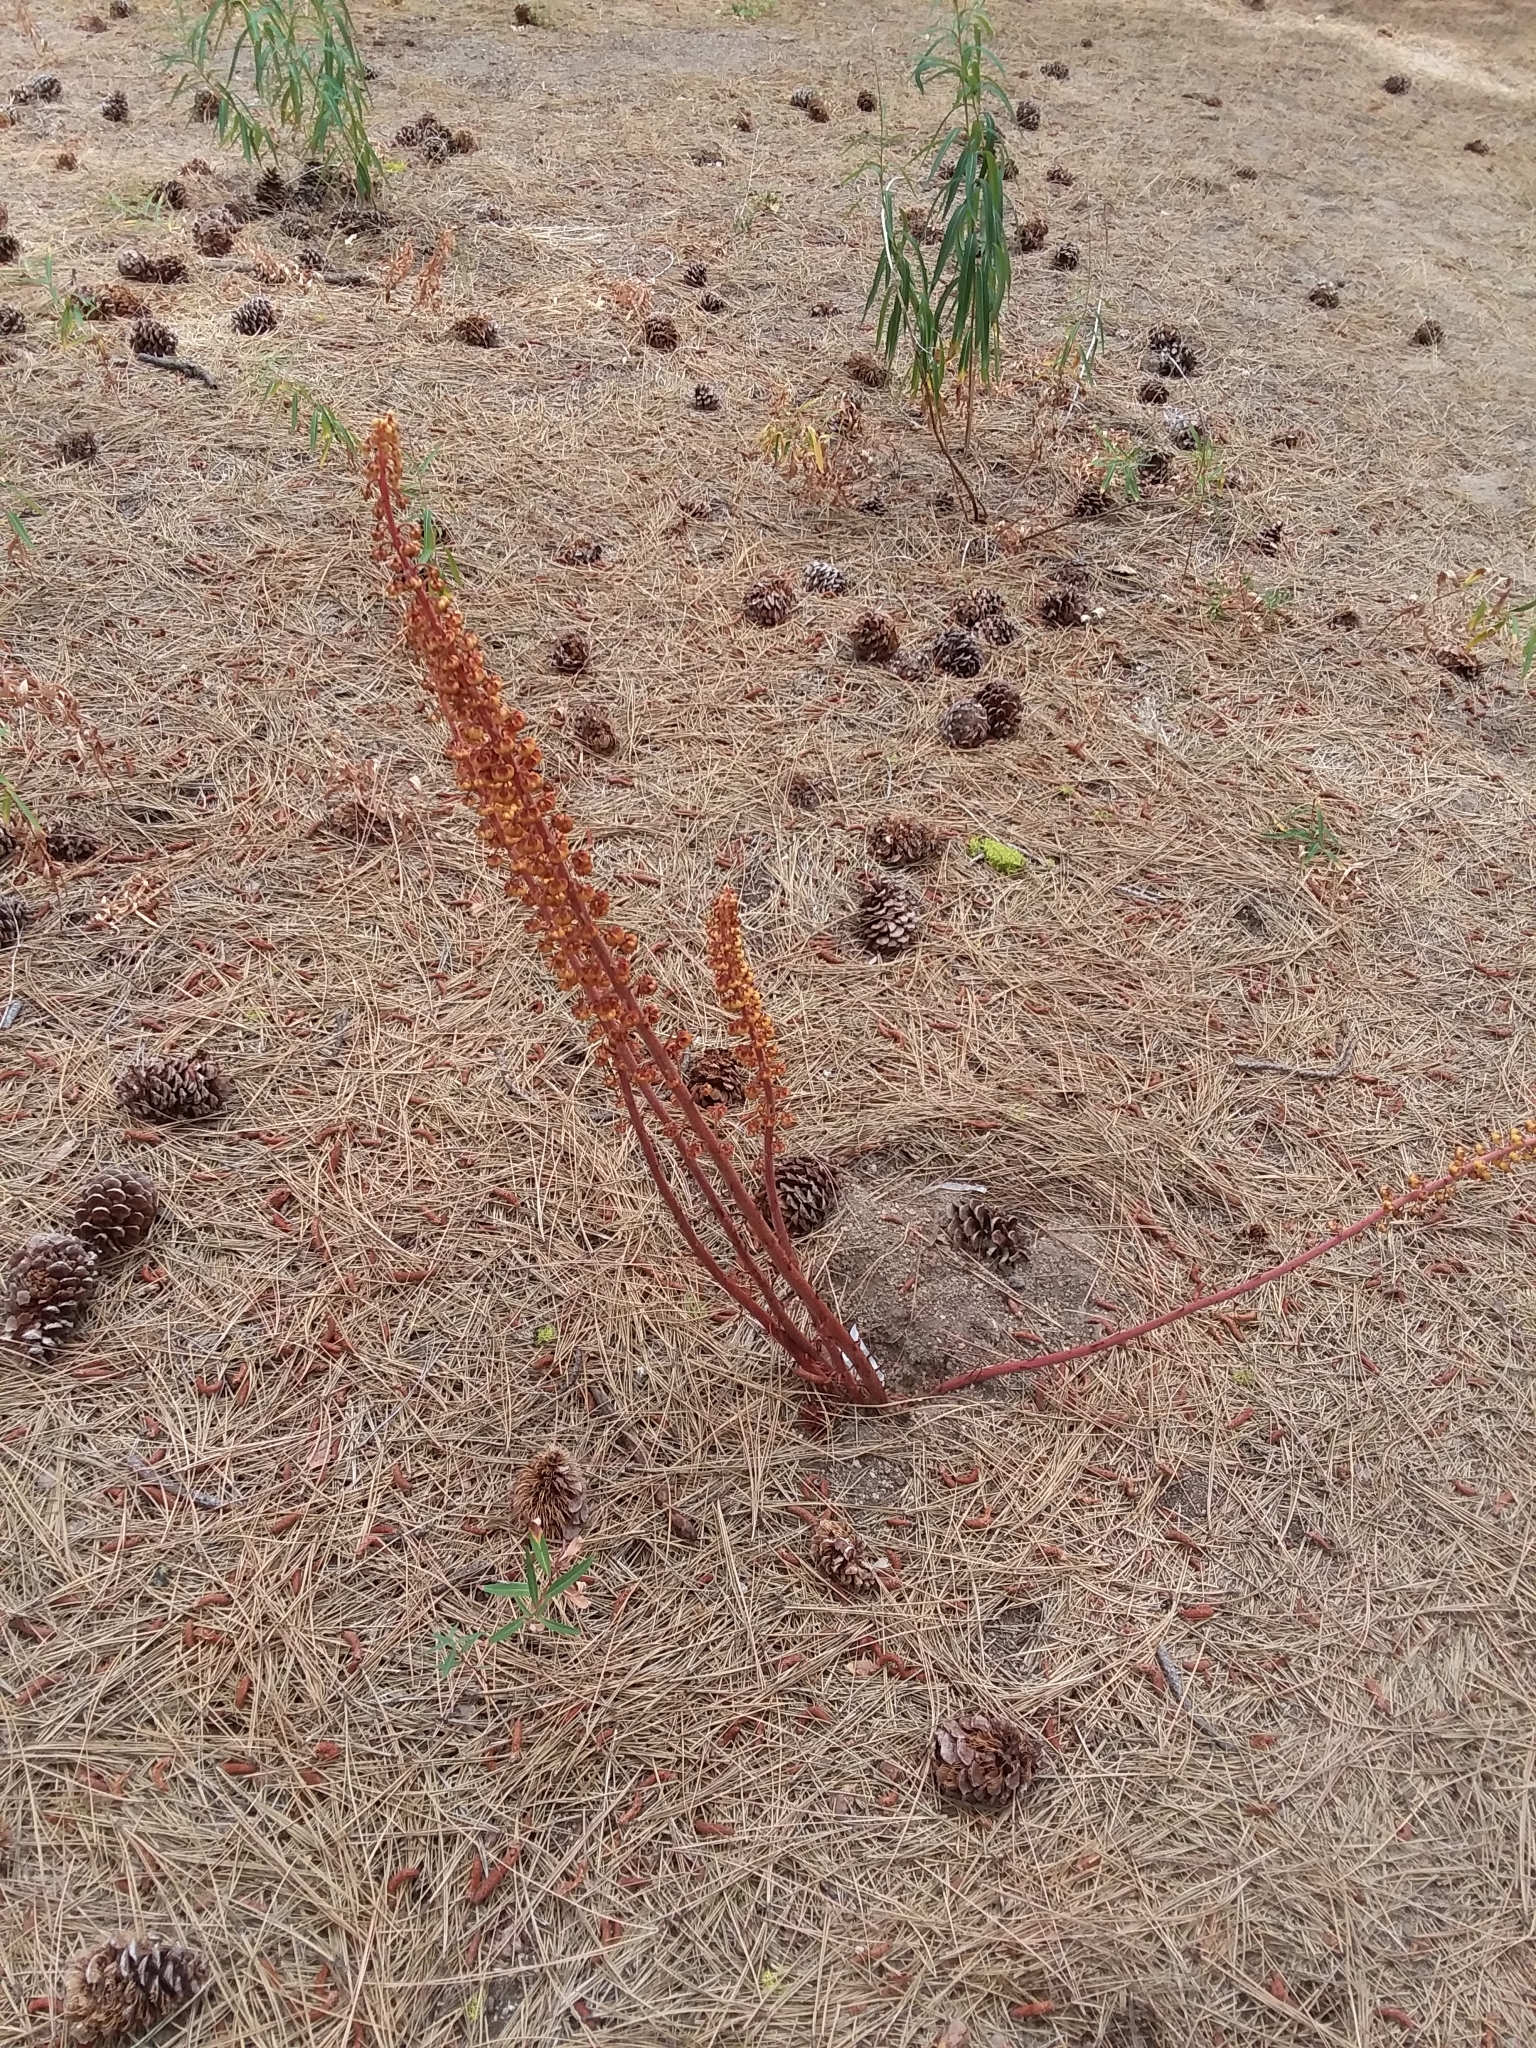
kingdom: Plantae
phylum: Tracheophyta
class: Magnoliopsida
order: Ericales
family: Ericaceae
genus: Pterospora
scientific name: Pterospora andromedea
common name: Giant bird's-nest
